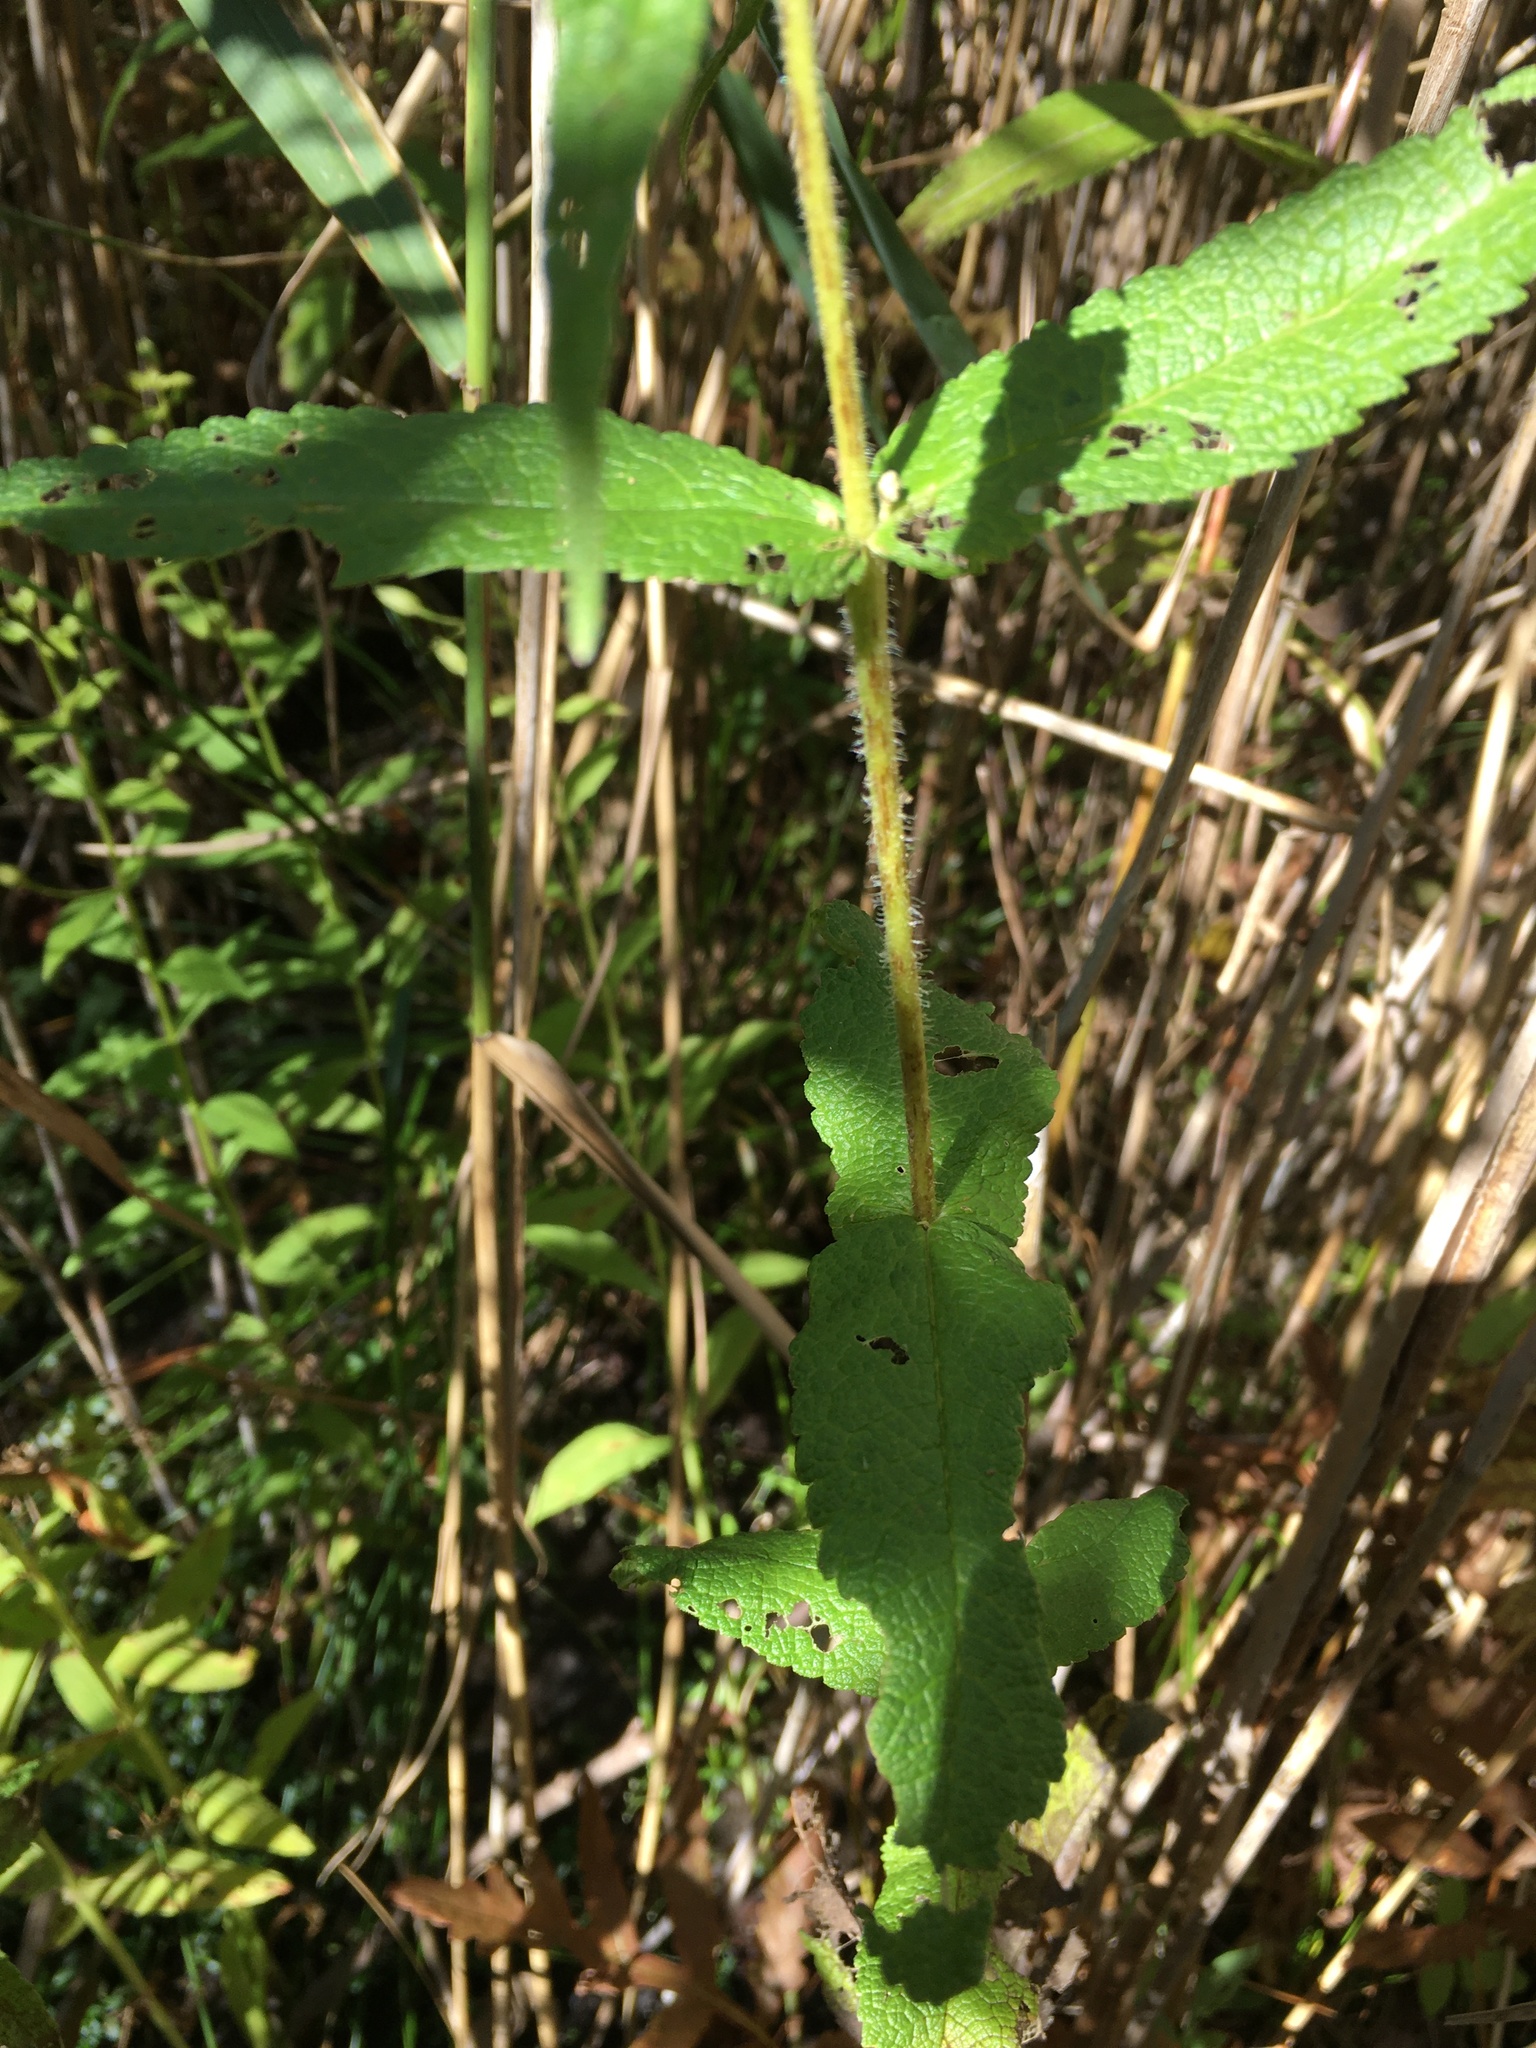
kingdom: Plantae
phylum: Tracheophyta
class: Magnoliopsida
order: Asterales
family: Asteraceae
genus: Eupatorium
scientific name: Eupatorium perfoliatum
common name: Boneset
